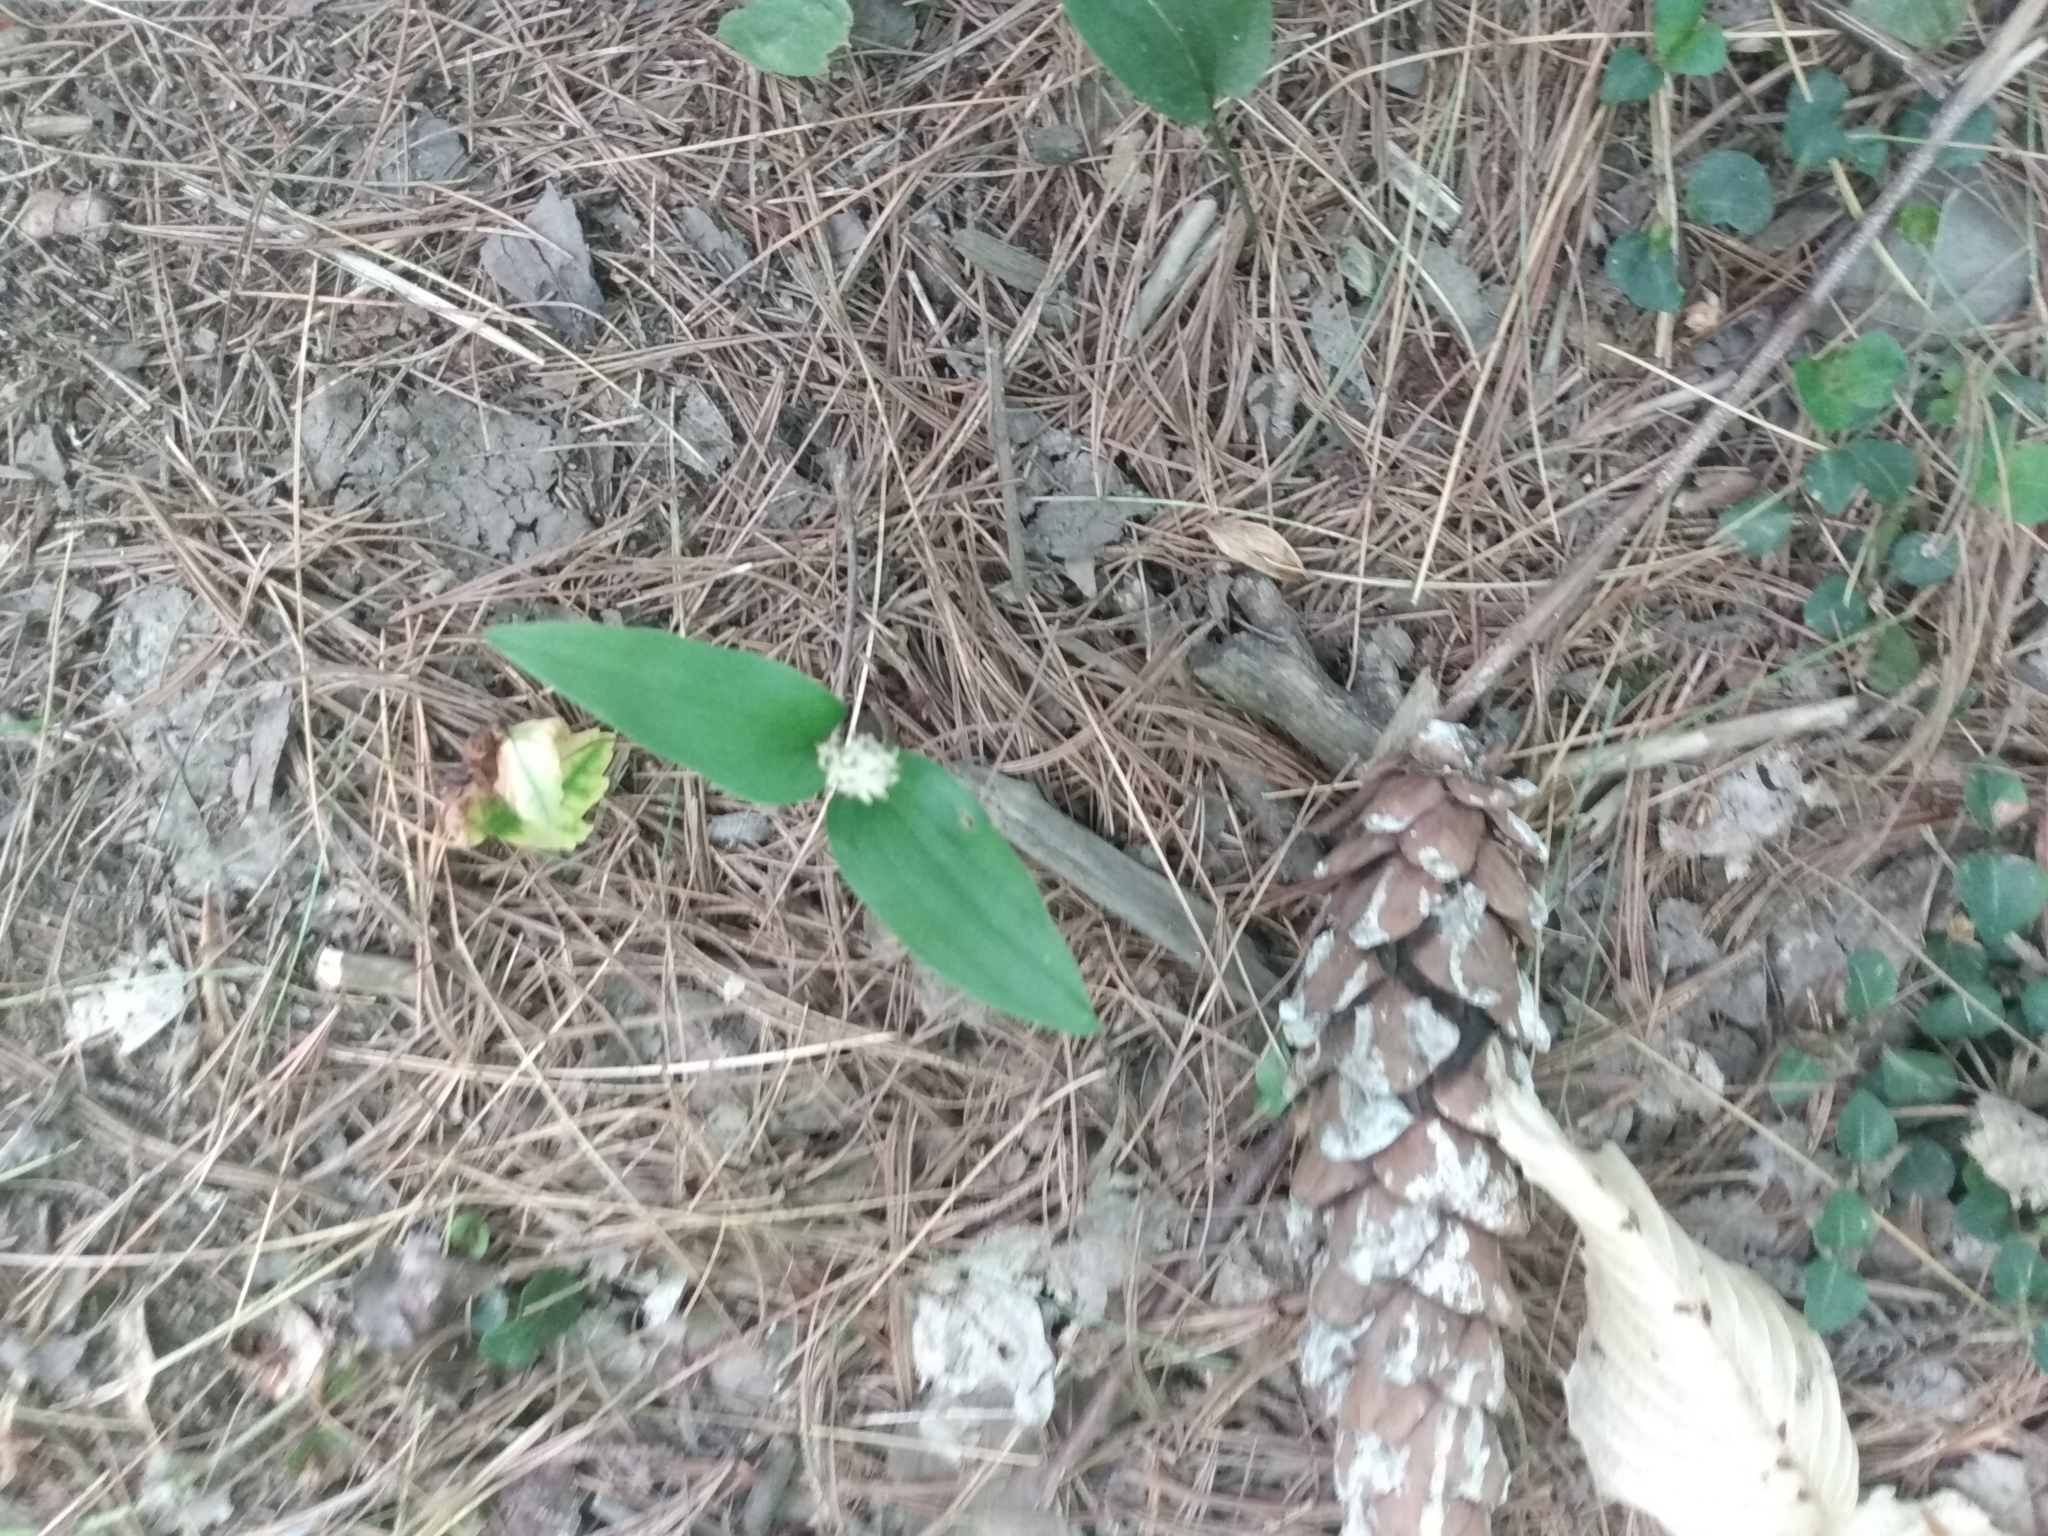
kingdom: Plantae
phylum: Tracheophyta
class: Liliopsida
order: Asparagales
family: Asparagaceae
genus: Maianthemum
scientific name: Maianthemum canadense
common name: False lily-of-the-valley
